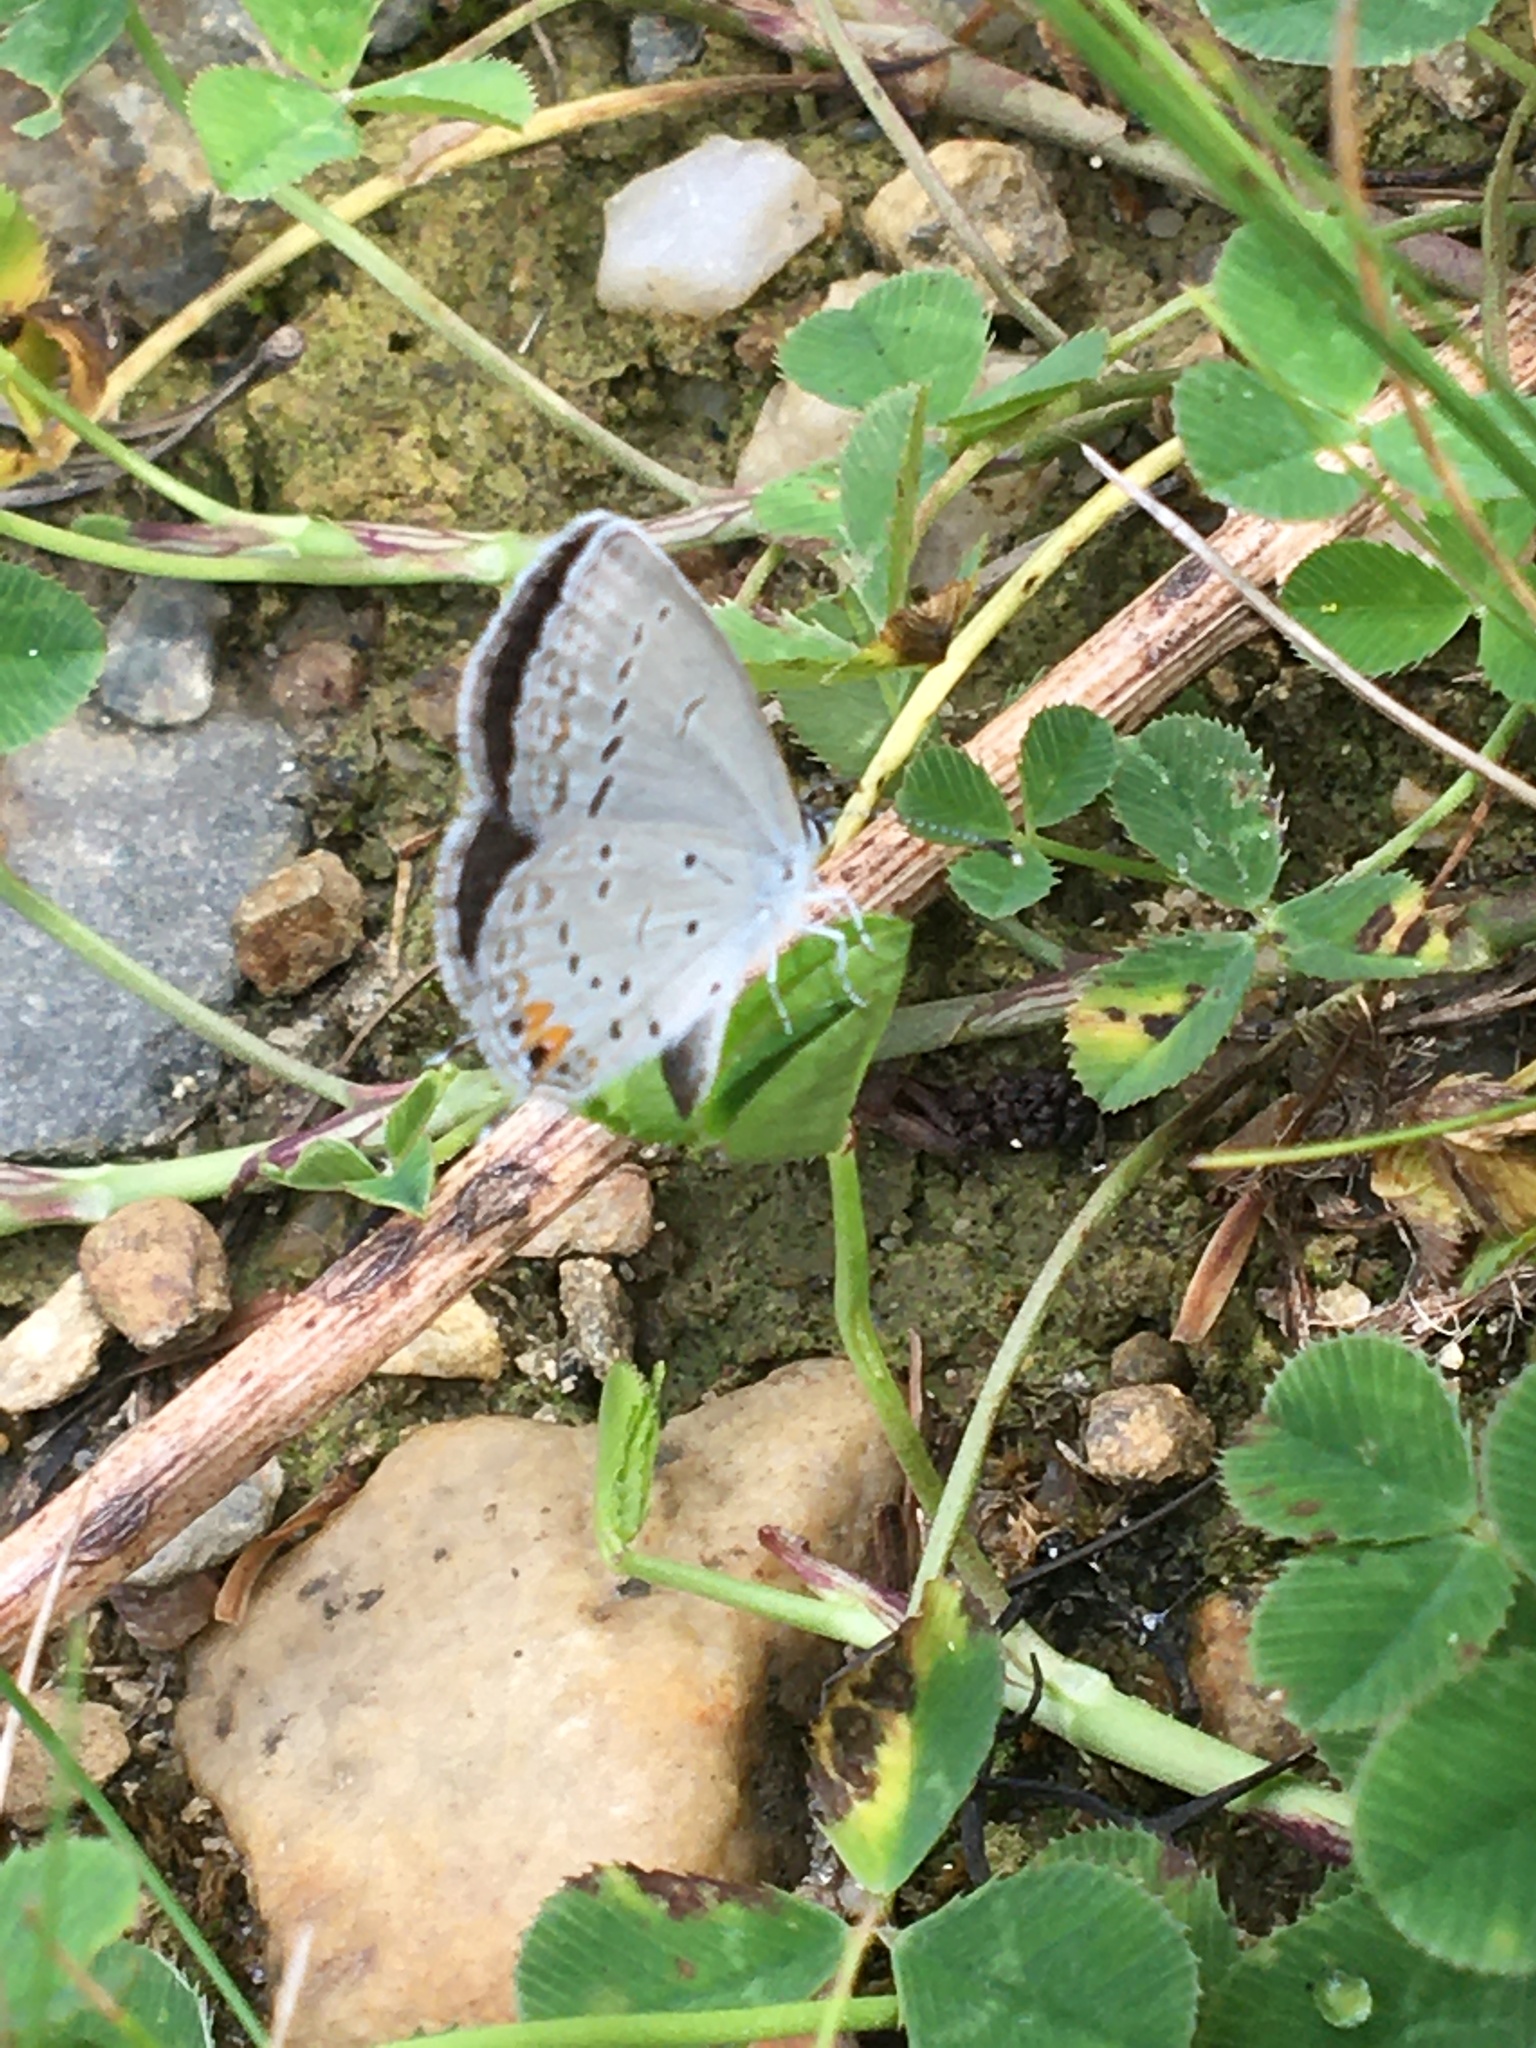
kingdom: Animalia
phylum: Arthropoda
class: Insecta
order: Lepidoptera
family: Lycaenidae
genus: Elkalyce
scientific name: Elkalyce comyntas
